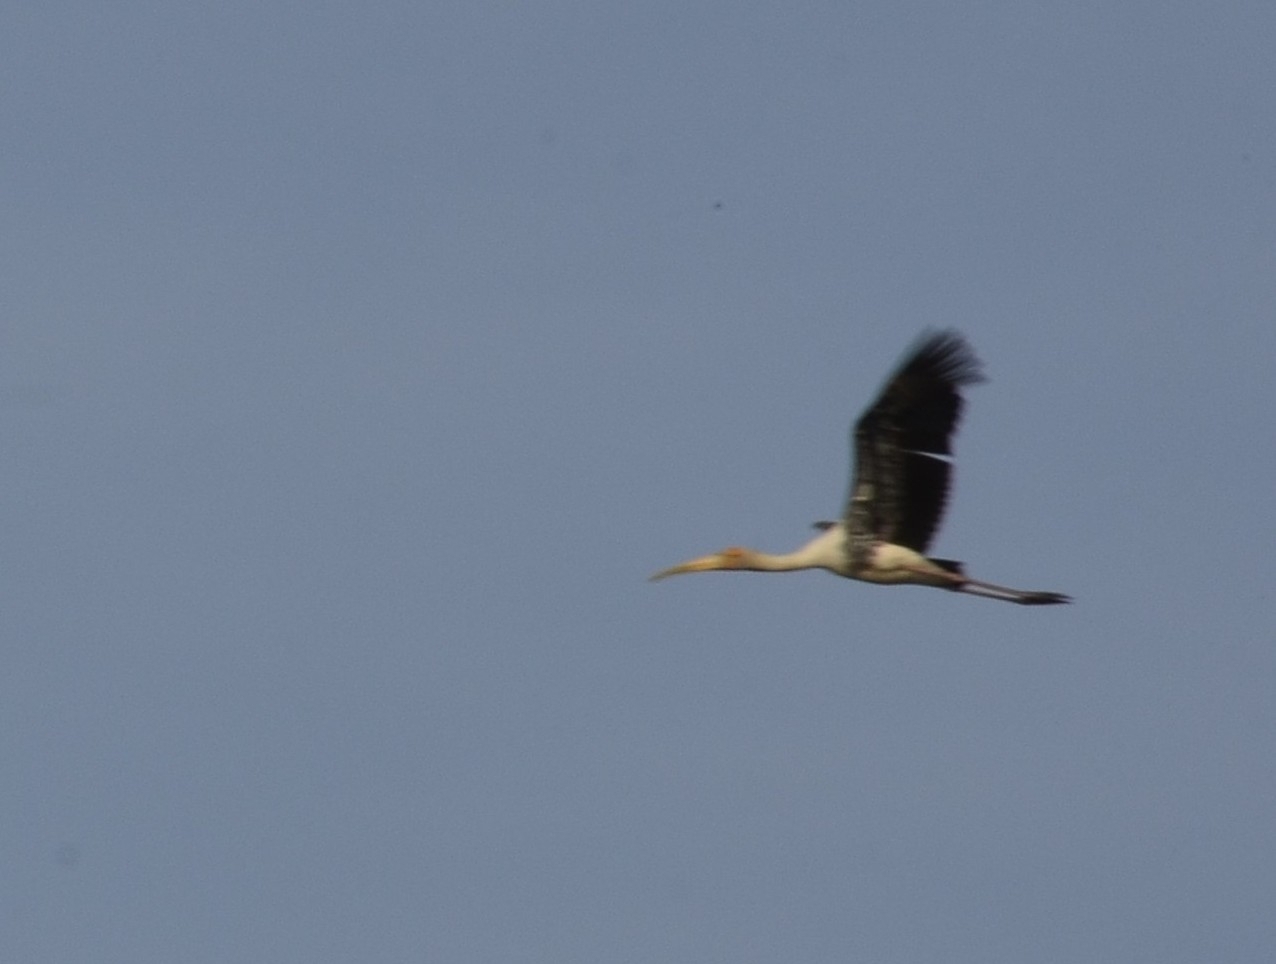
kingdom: Animalia
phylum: Chordata
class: Aves
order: Ciconiiformes
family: Ciconiidae
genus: Mycteria
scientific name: Mycteria leucocephala
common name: Painted stork
